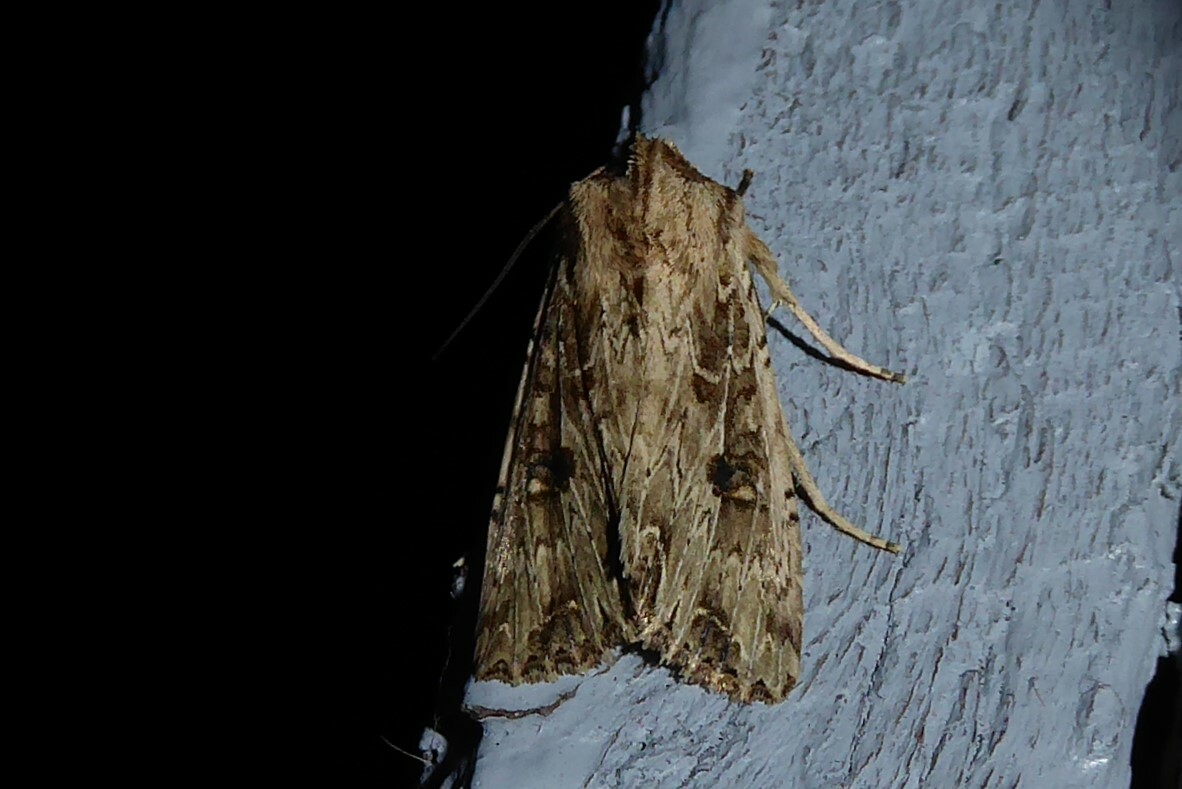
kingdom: Animalia
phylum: Arthropoda
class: Insecta
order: Lepidoptera
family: Noctuidae
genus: Ichneutica
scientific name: Ichneutica lignana
